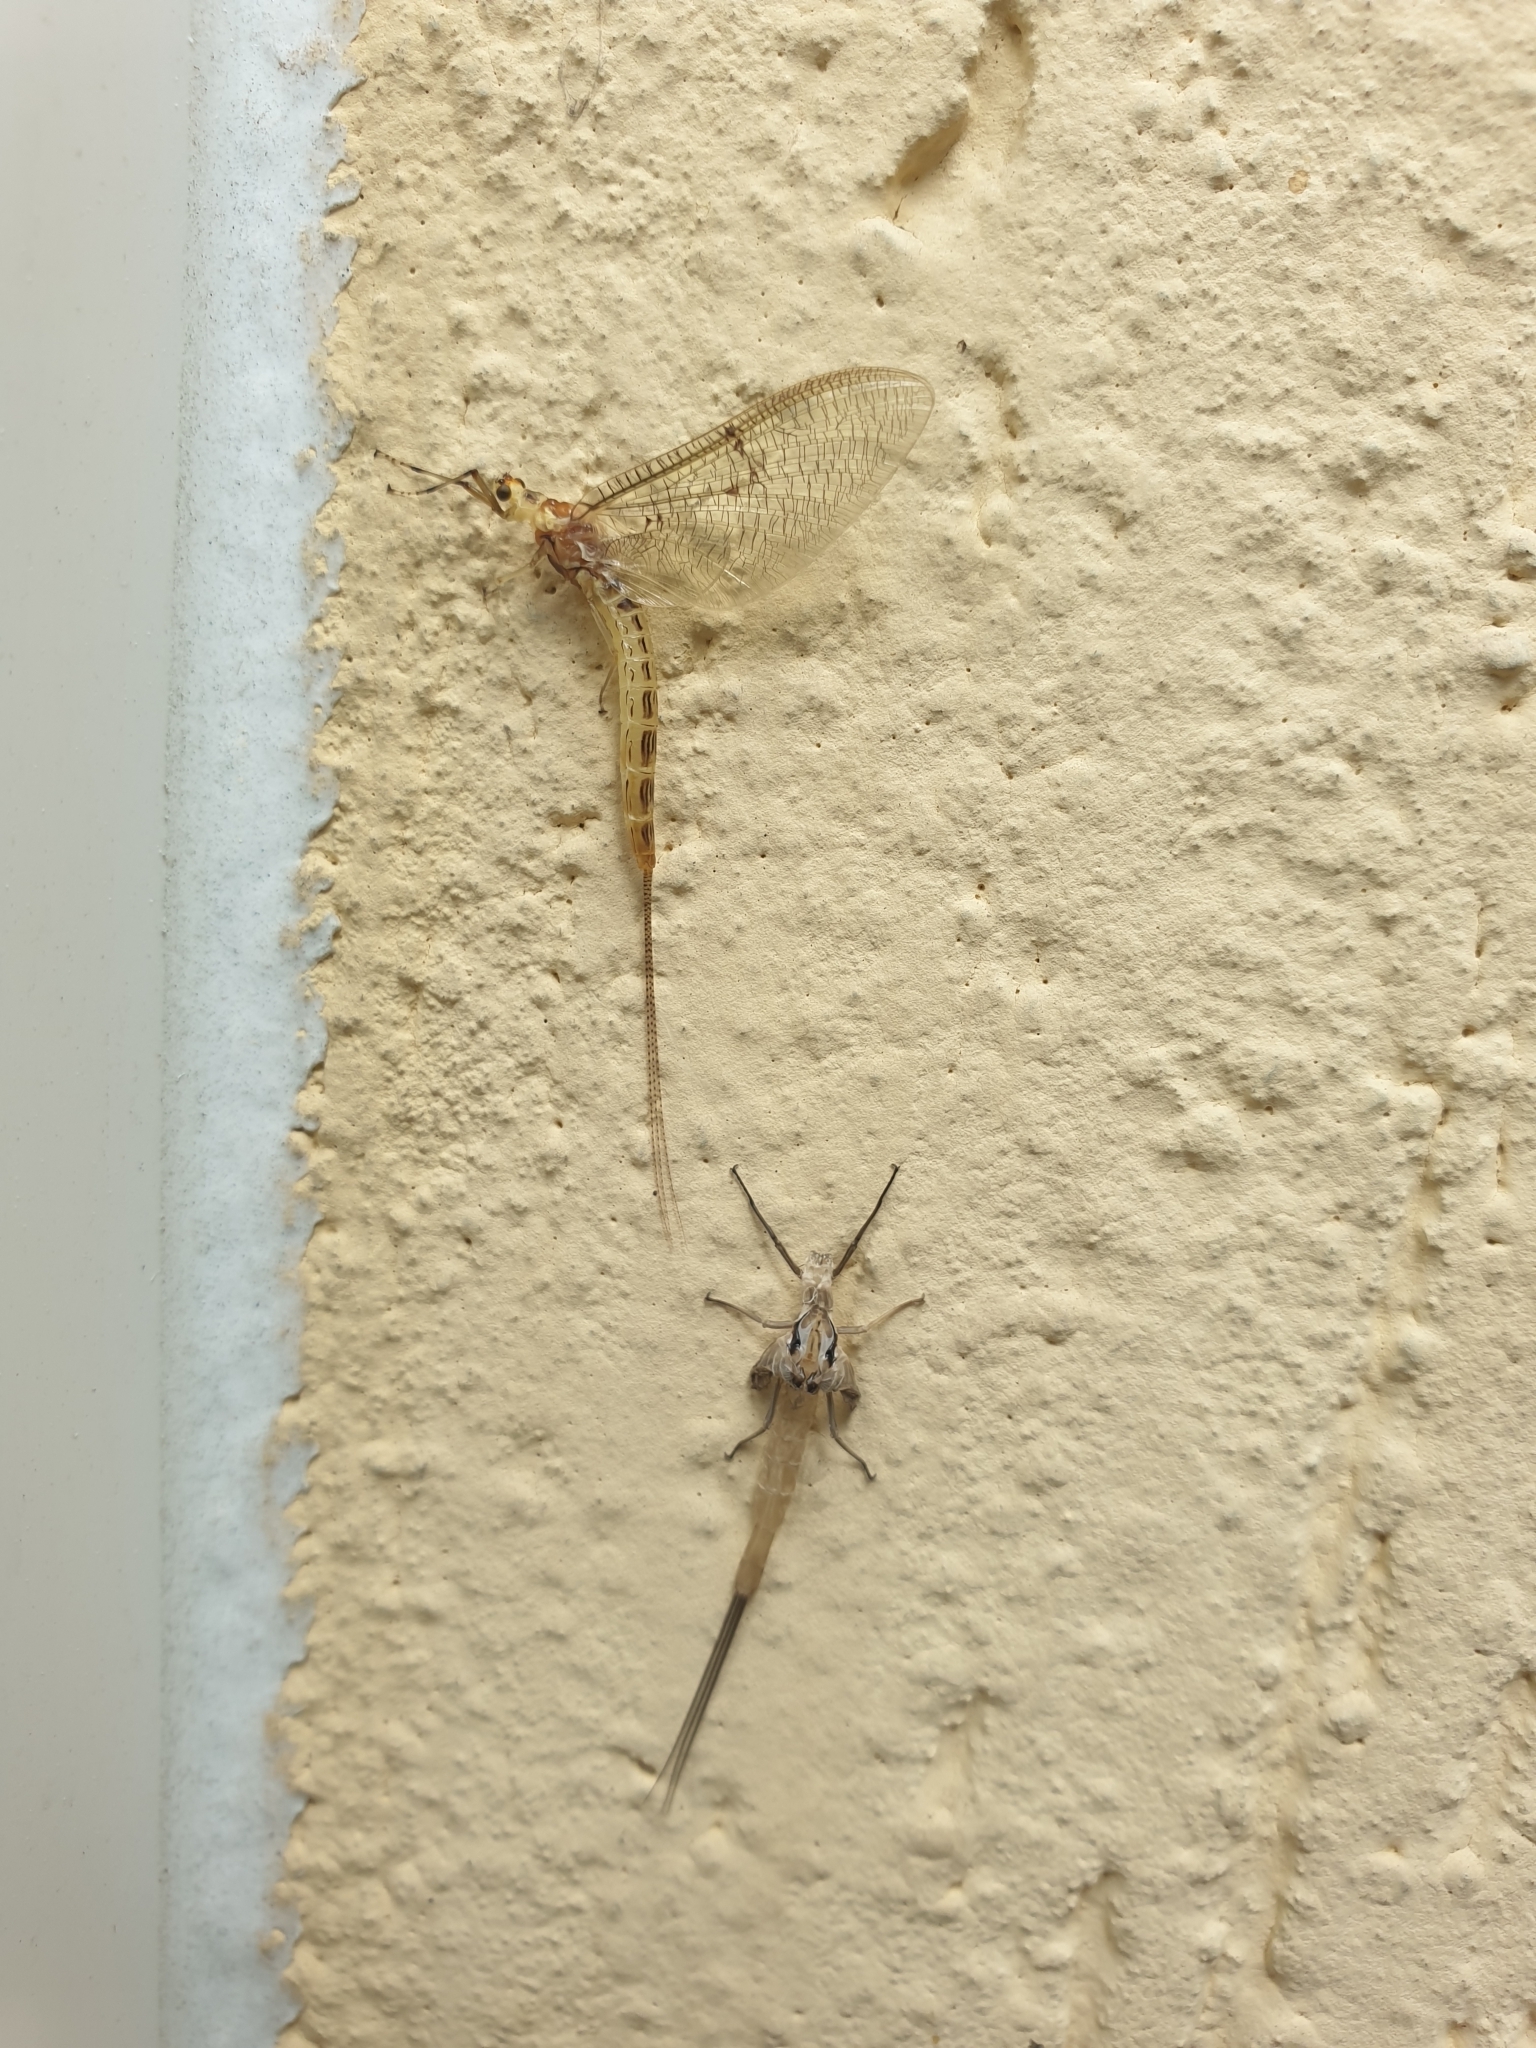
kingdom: Animalia
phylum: Arthropoda
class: Insecta
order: Ephemeroptera
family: Ephemeridae
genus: Ephemera
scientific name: Ephemera lineata
